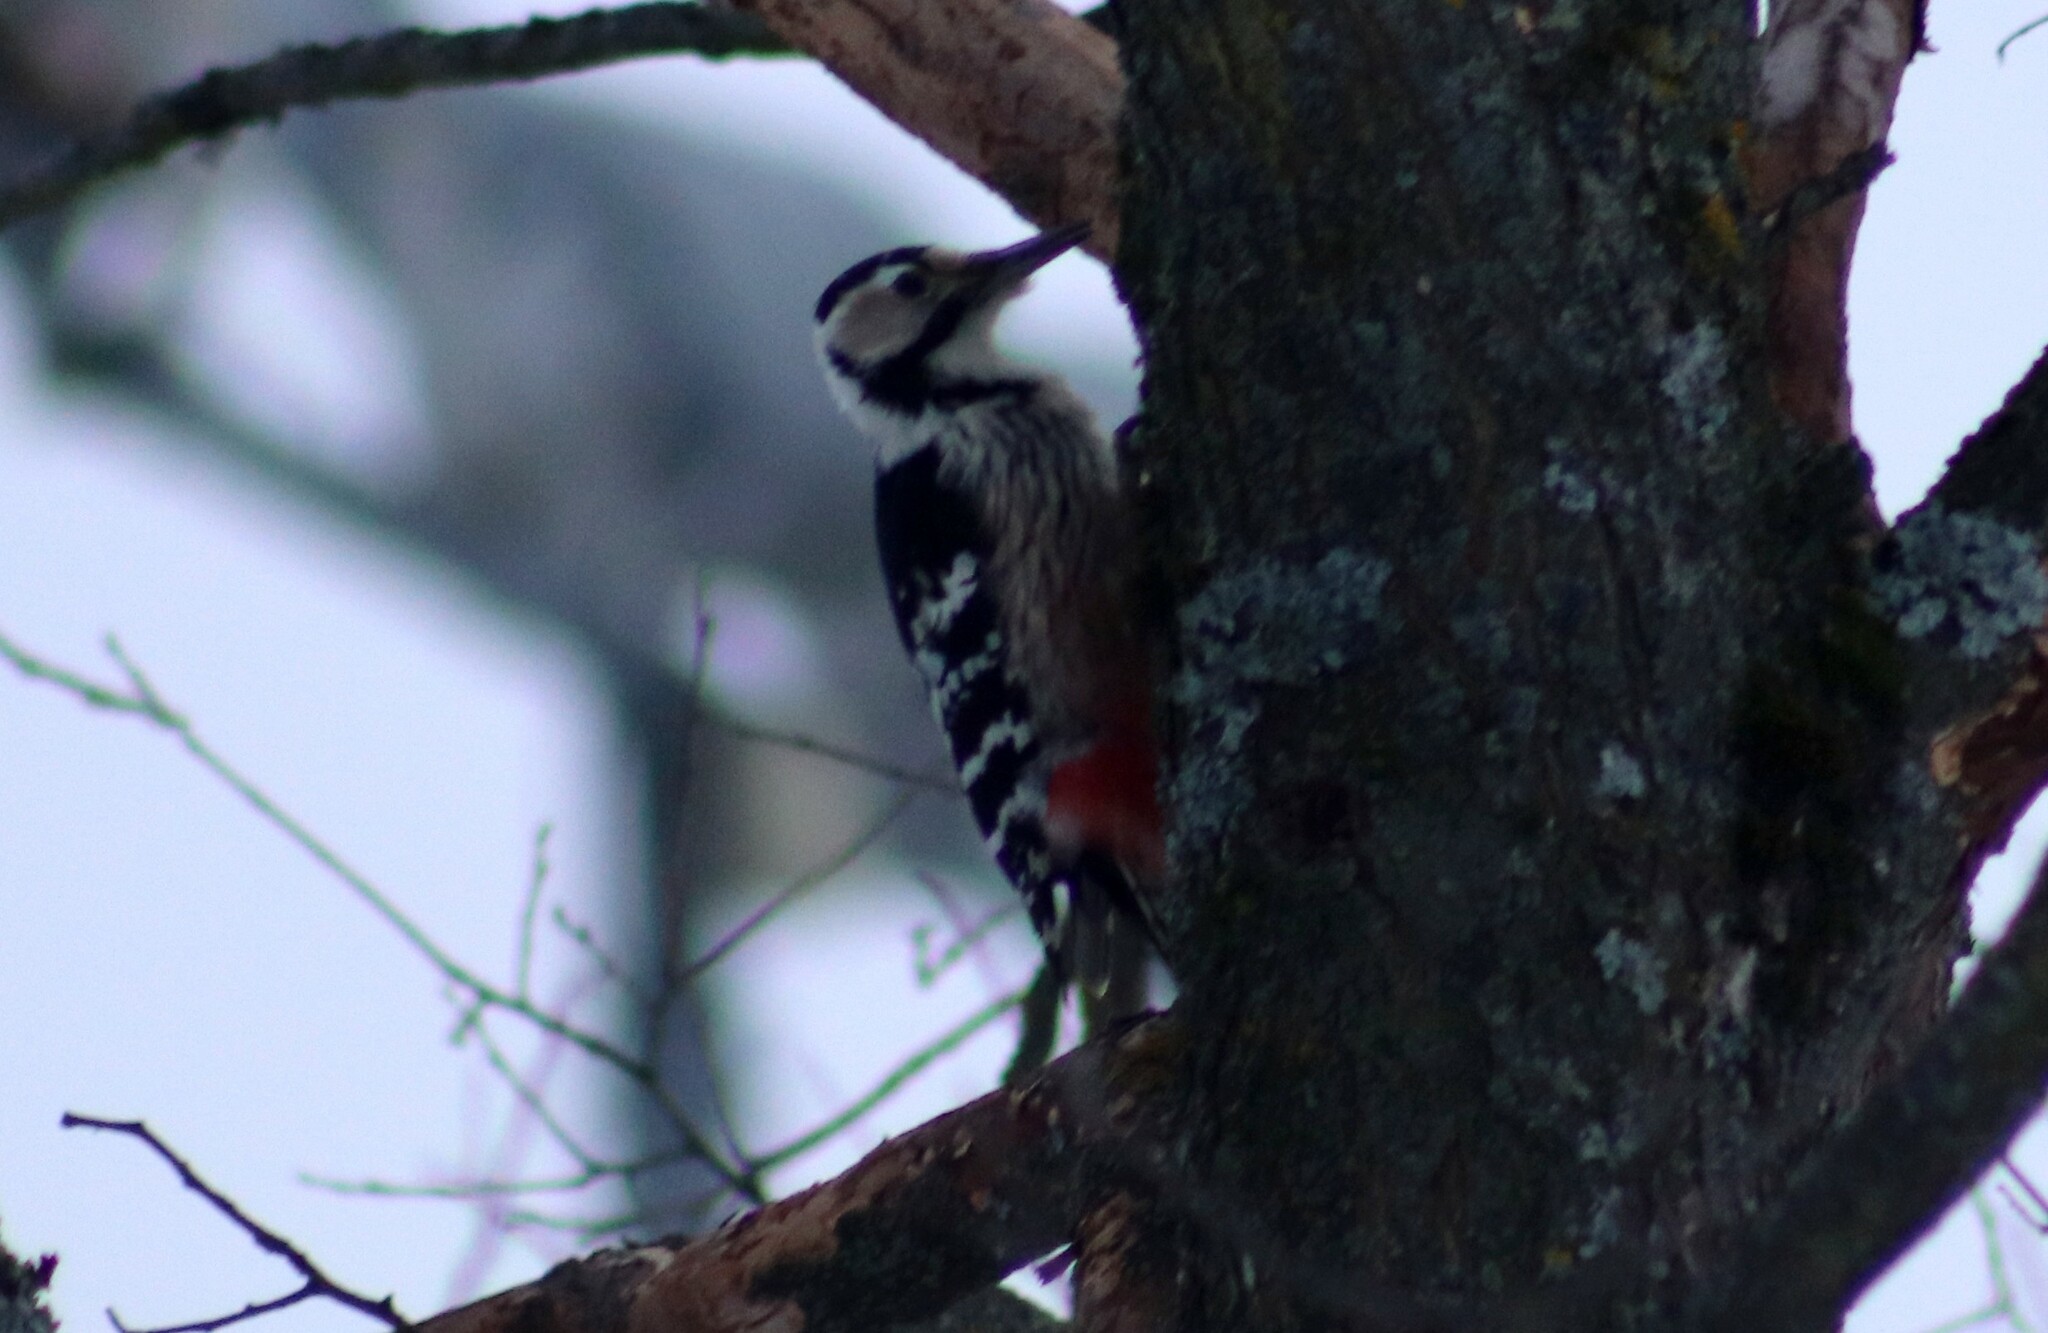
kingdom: Animalia
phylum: Chordata
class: Aves
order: Piciformes
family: Picidae
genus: Dendrocopos
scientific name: Dendrocopos leucotos
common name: White-backed woodpecker
